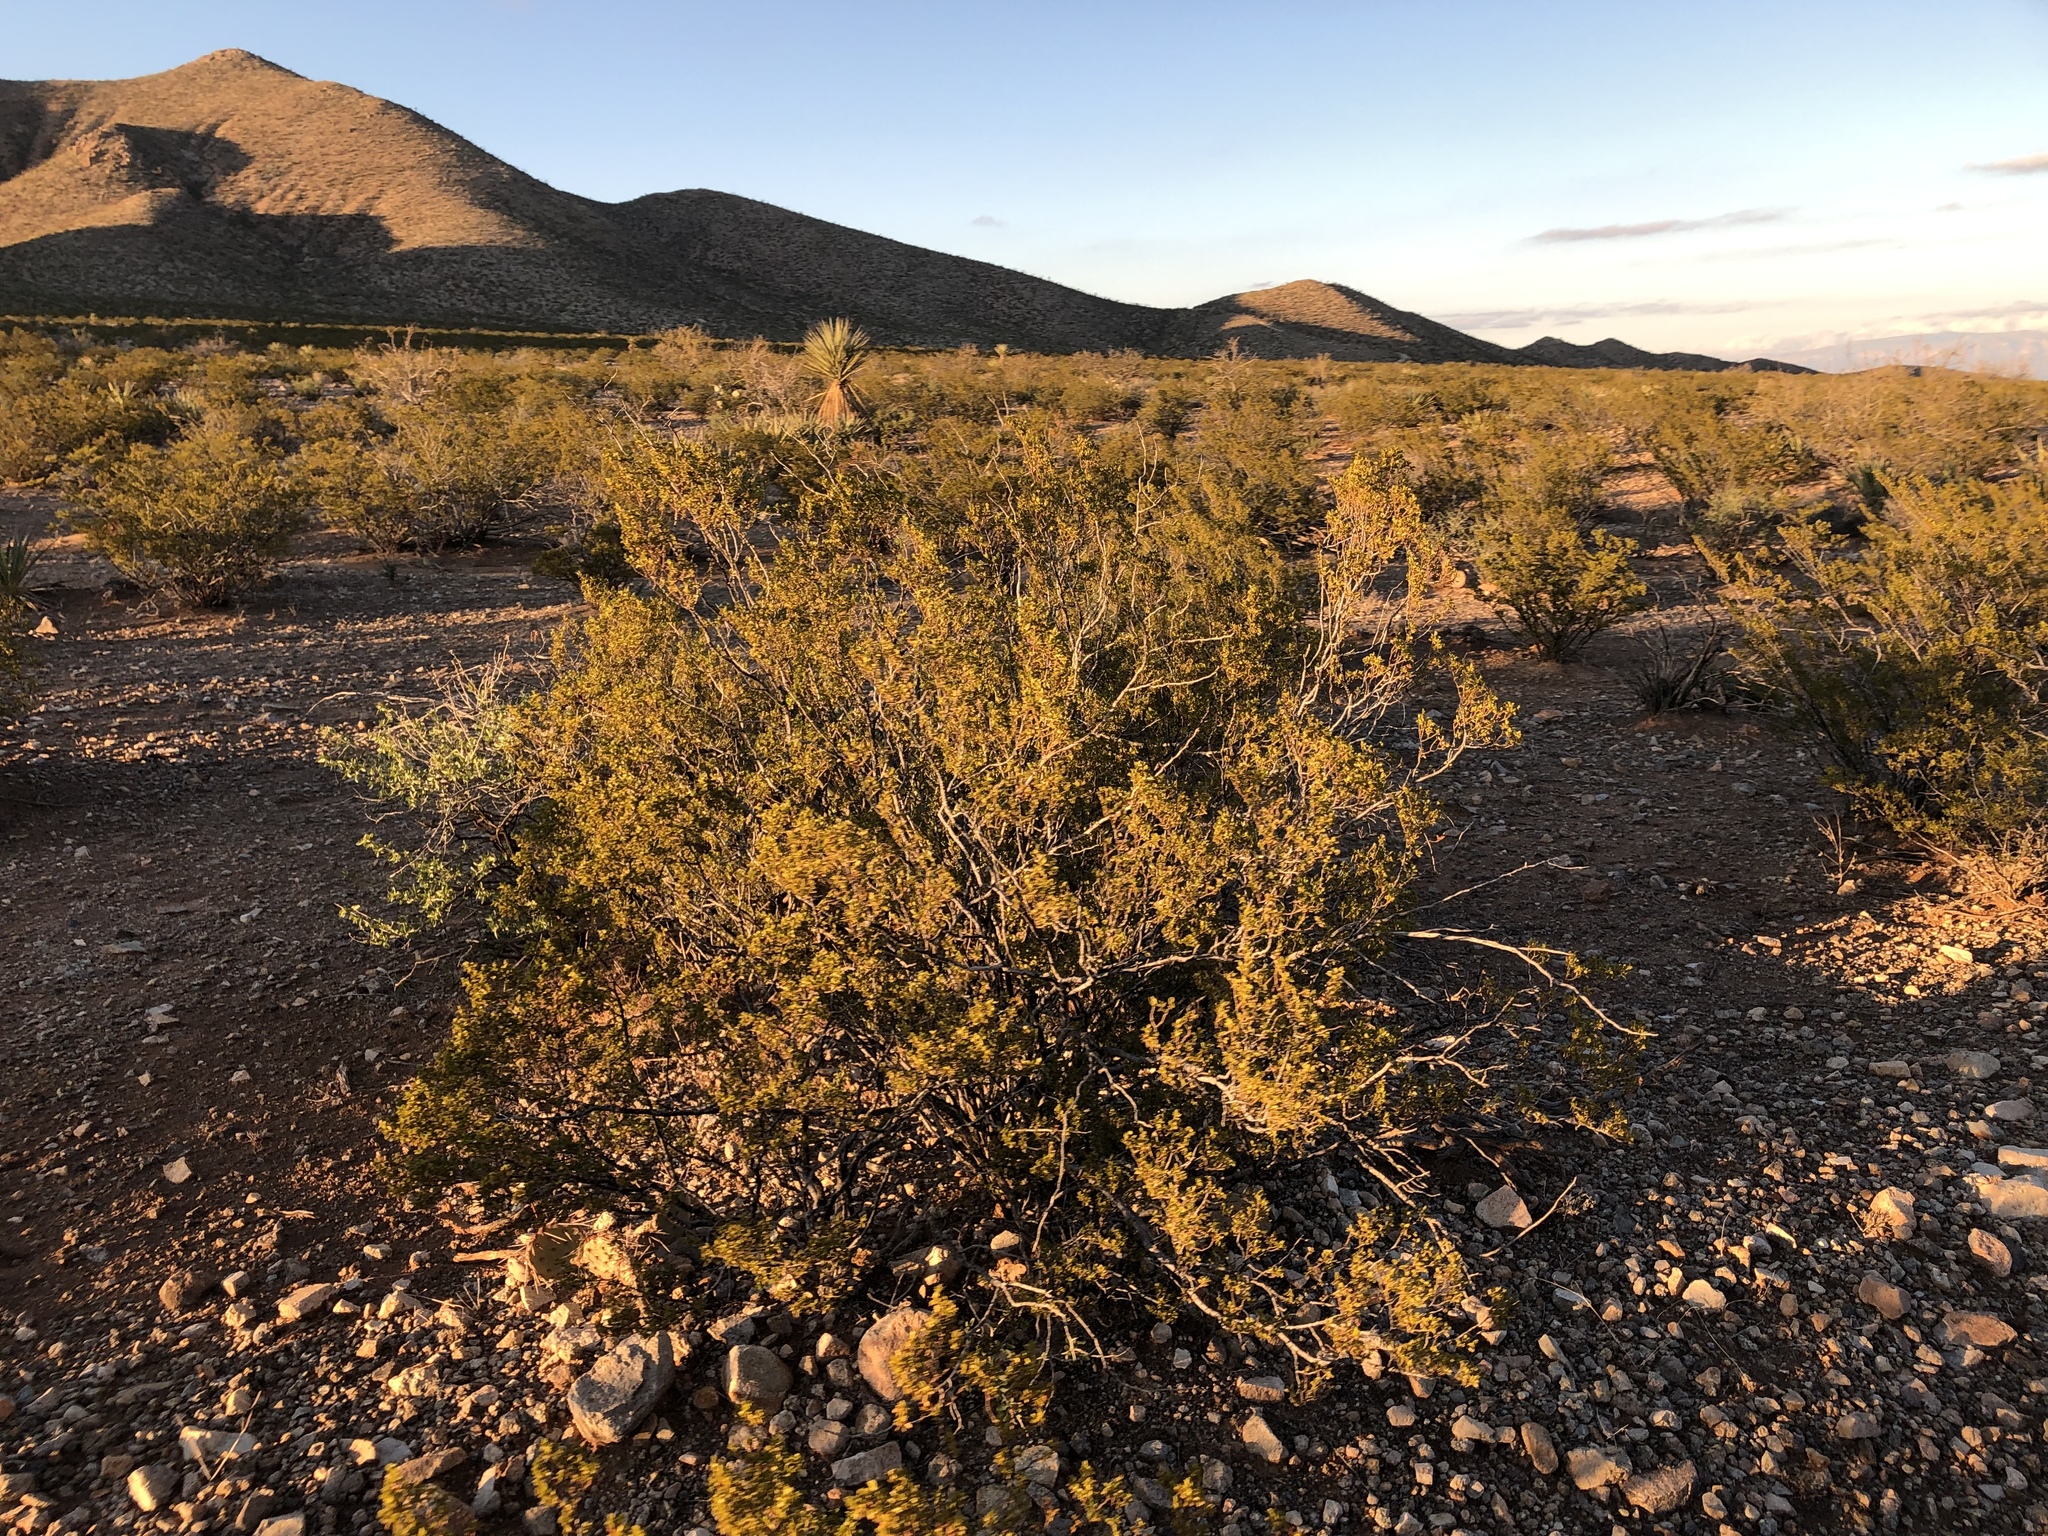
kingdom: Plantae
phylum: Tracheophyta
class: Magnoliopsida
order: Zygophyllales
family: Zygophyllaceae
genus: Larrea
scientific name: Larrea tridentata
